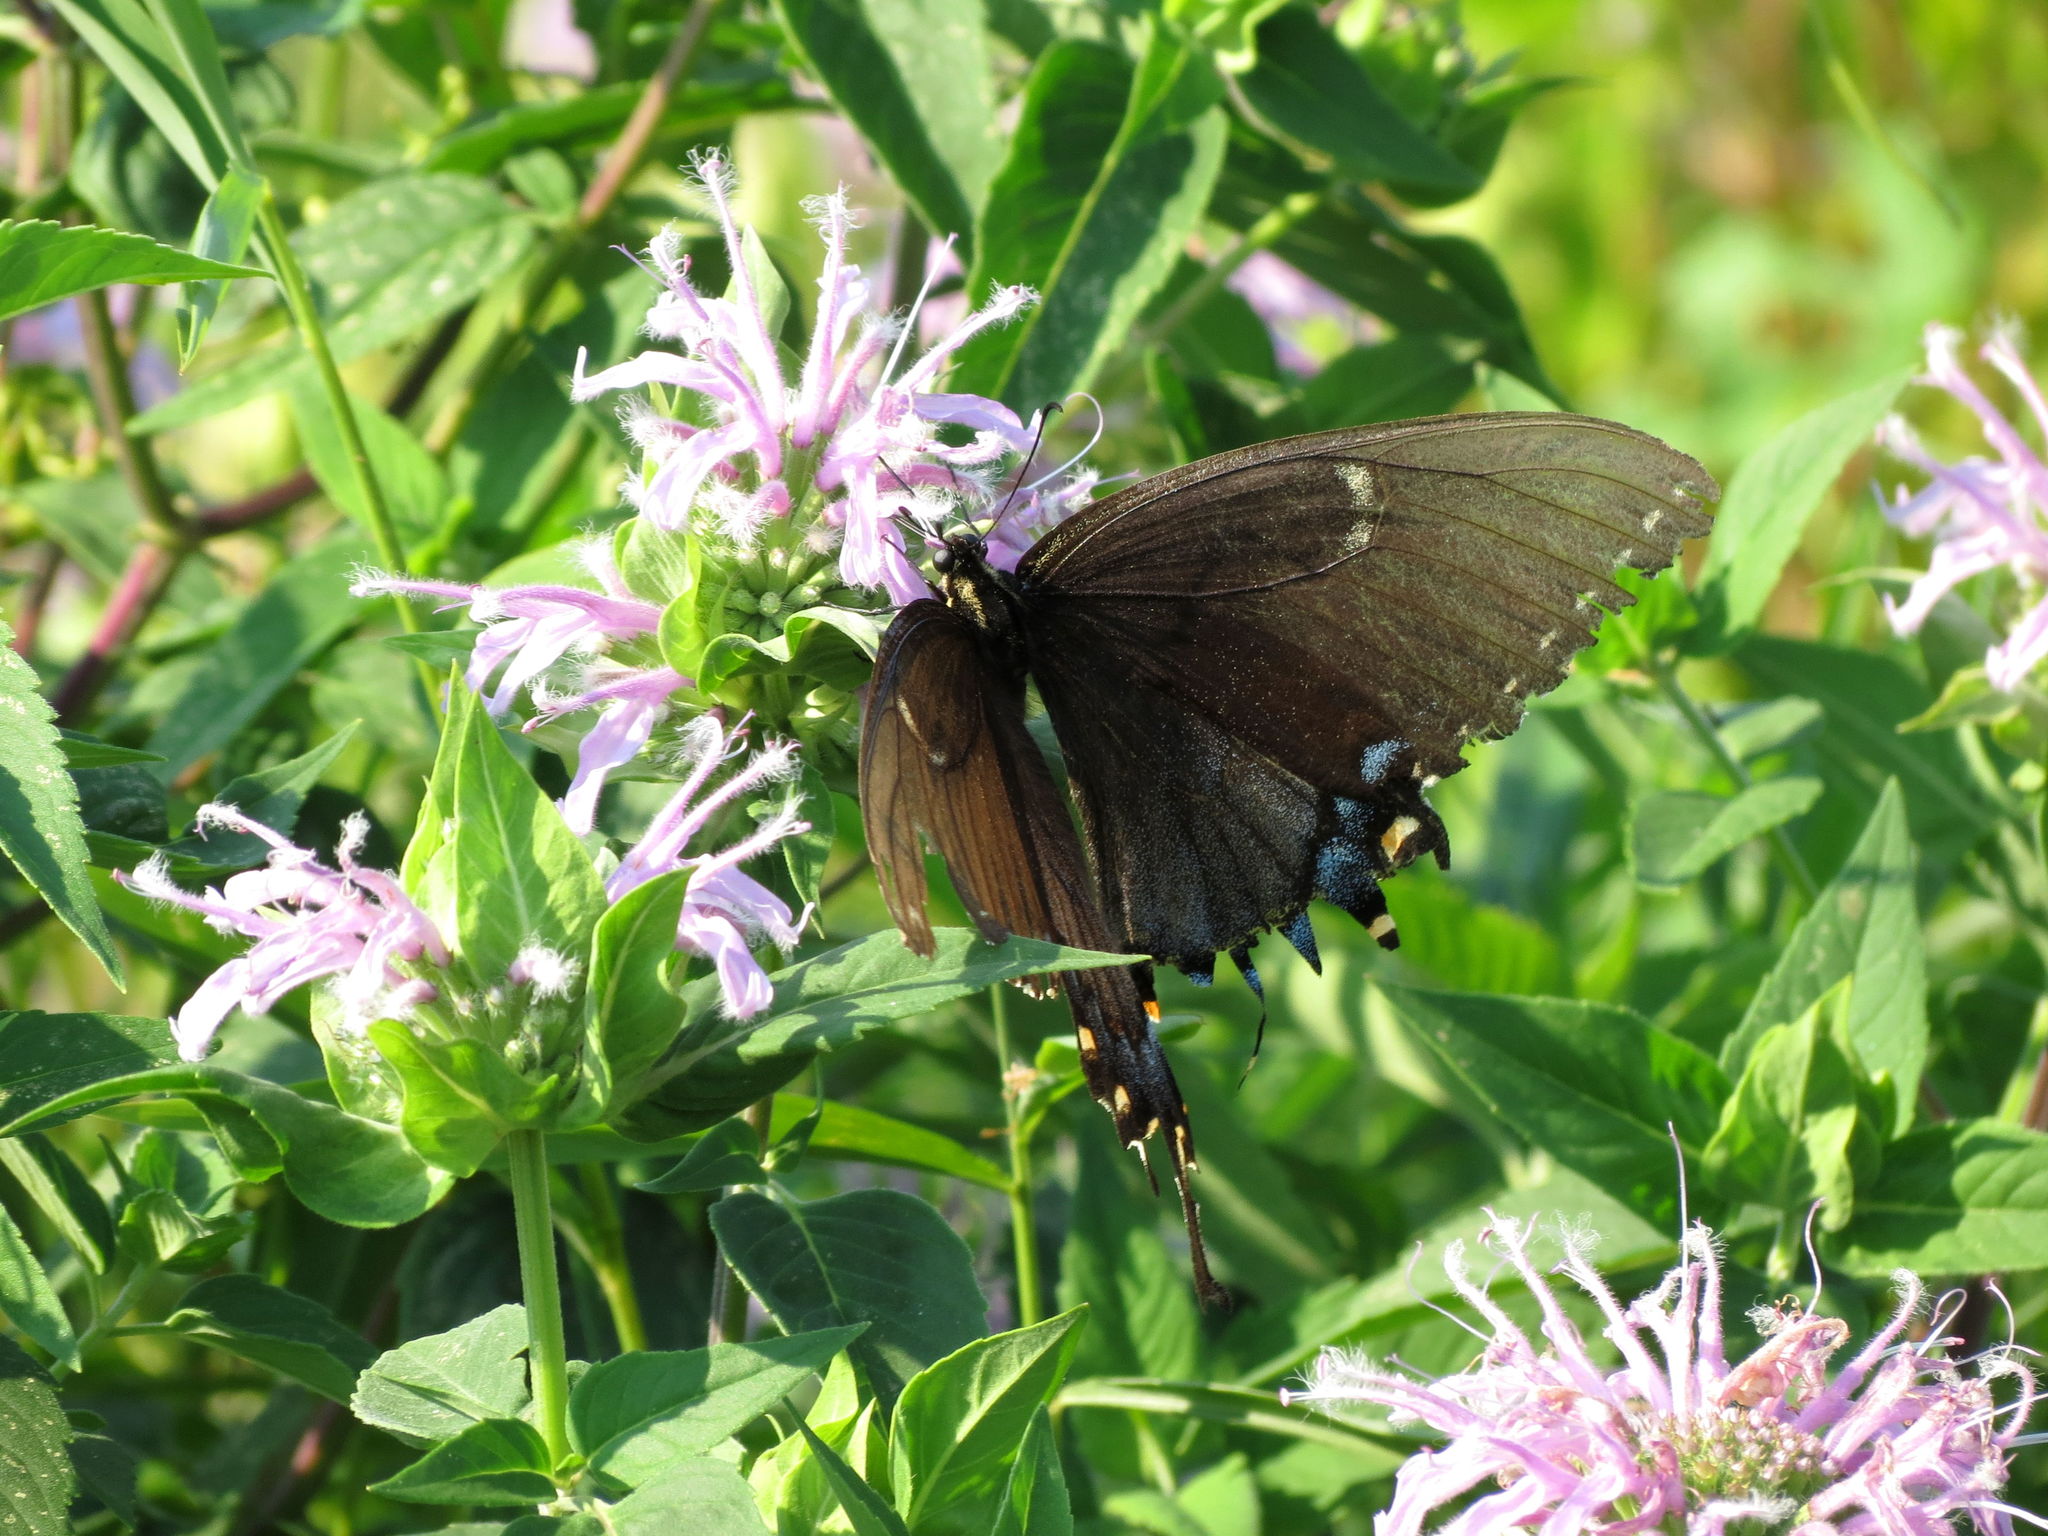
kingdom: Animalia
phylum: Arthropoda
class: Insecta
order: Lepidoptera
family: Papilionidae
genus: Papilio
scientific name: Papilio glaucus
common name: Tiger swallowtail
